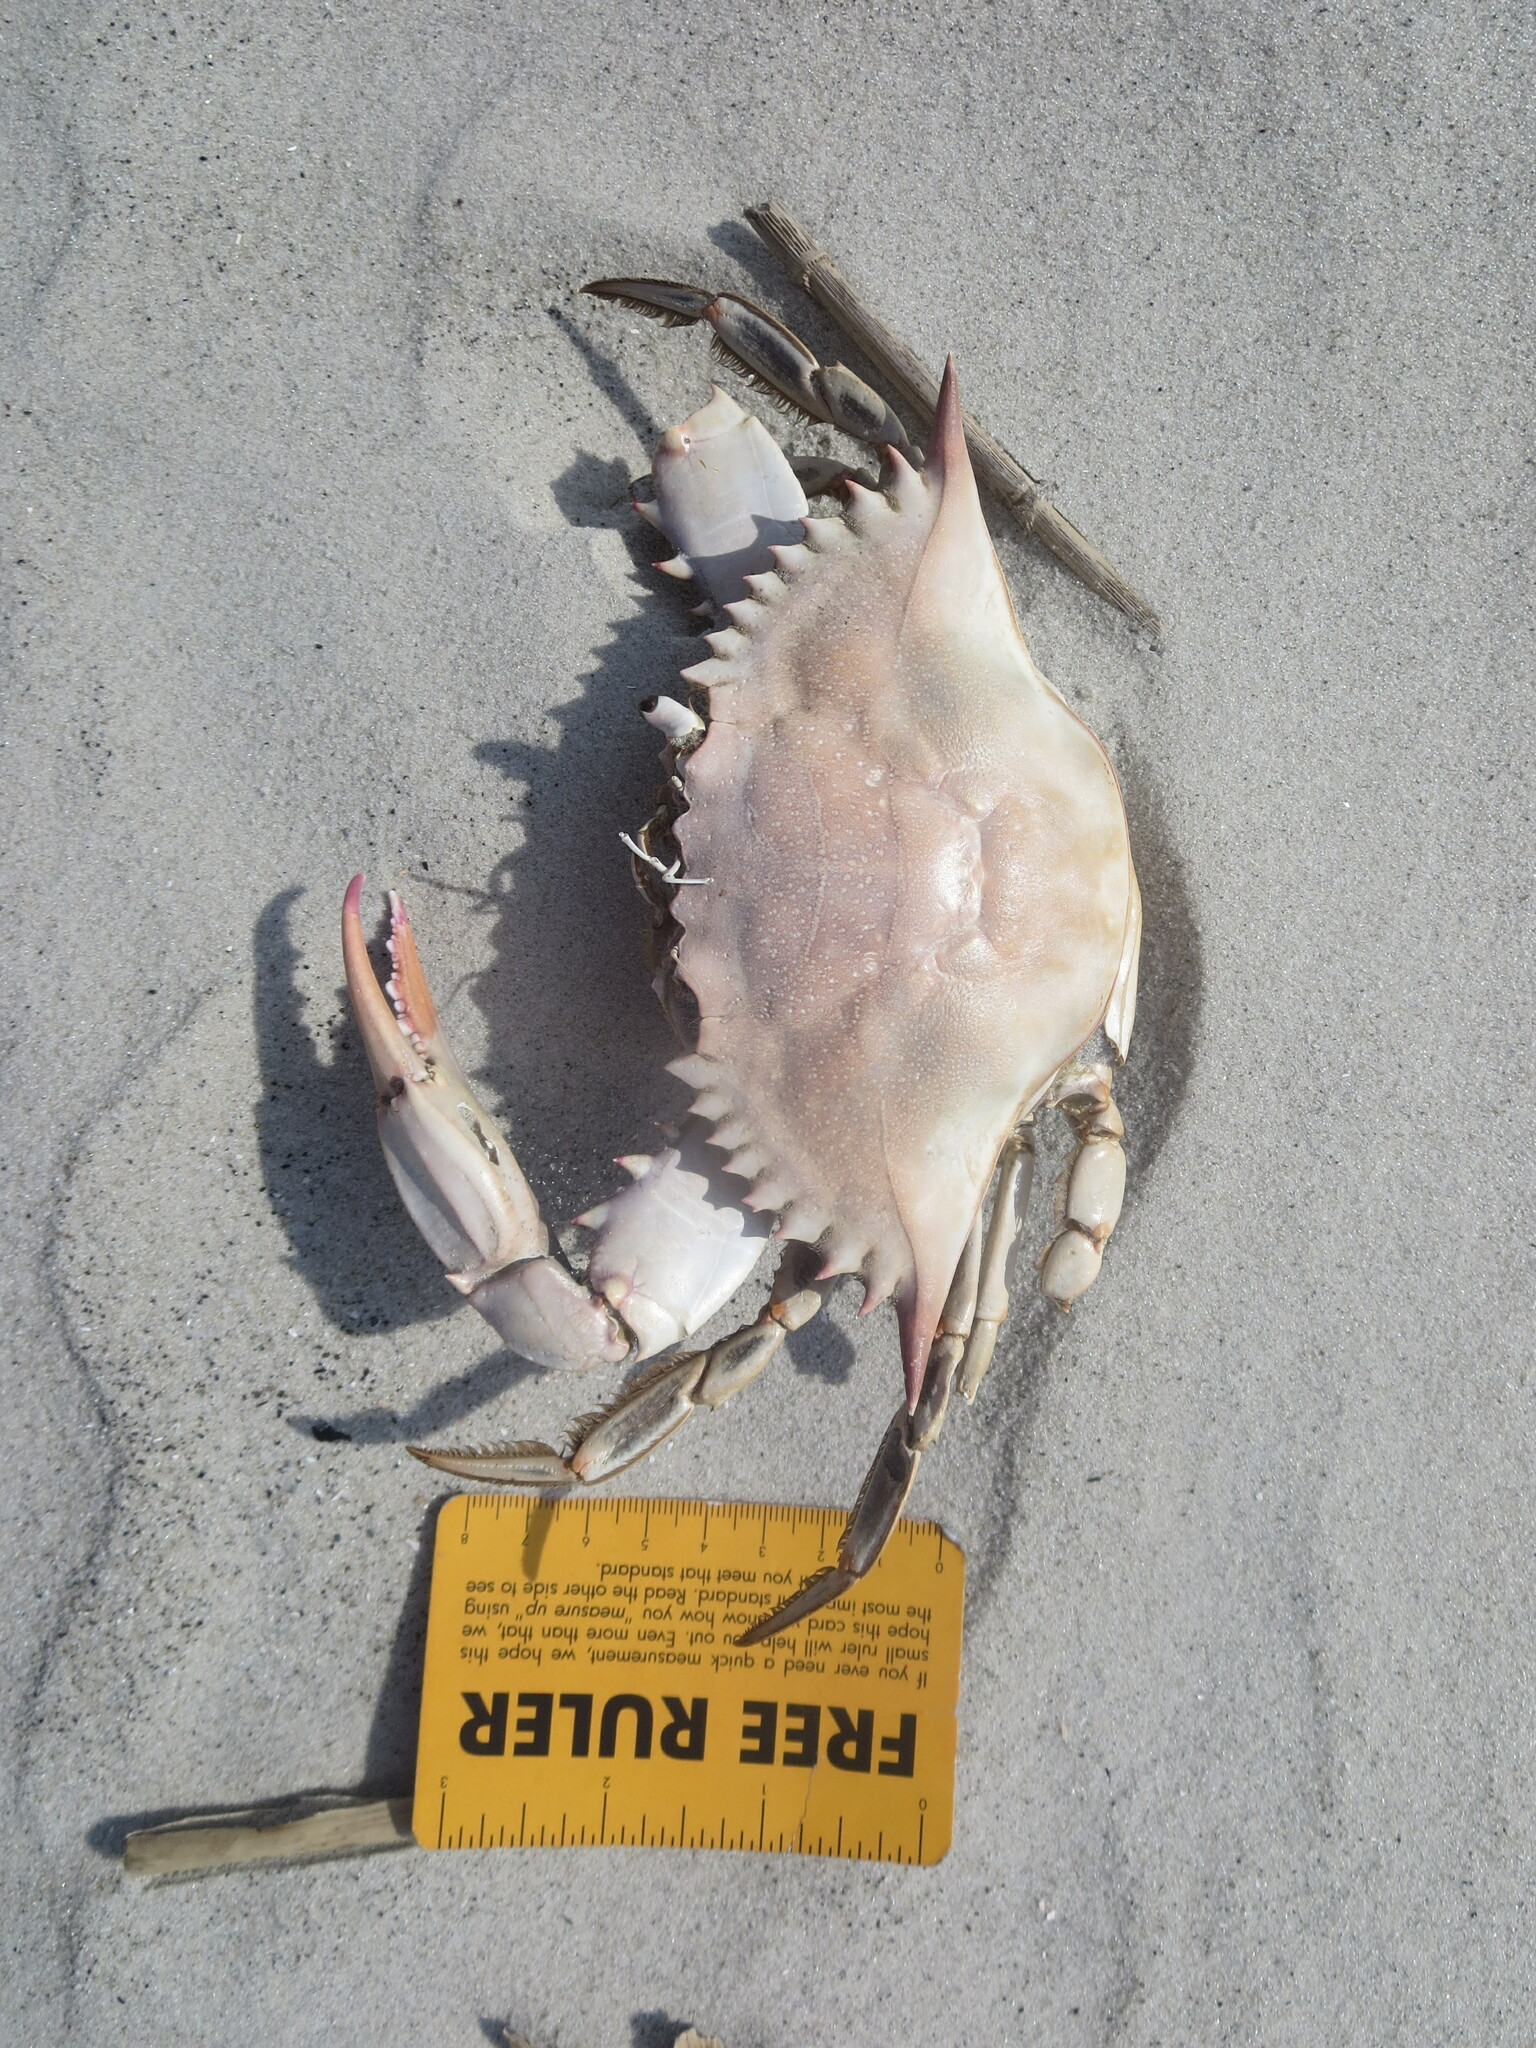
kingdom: Animalia
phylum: Arthropoda
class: Malacostraca
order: Decapoda
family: Portunidae
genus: Callinectes
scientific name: Callinectes sapidus
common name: Blue crab
